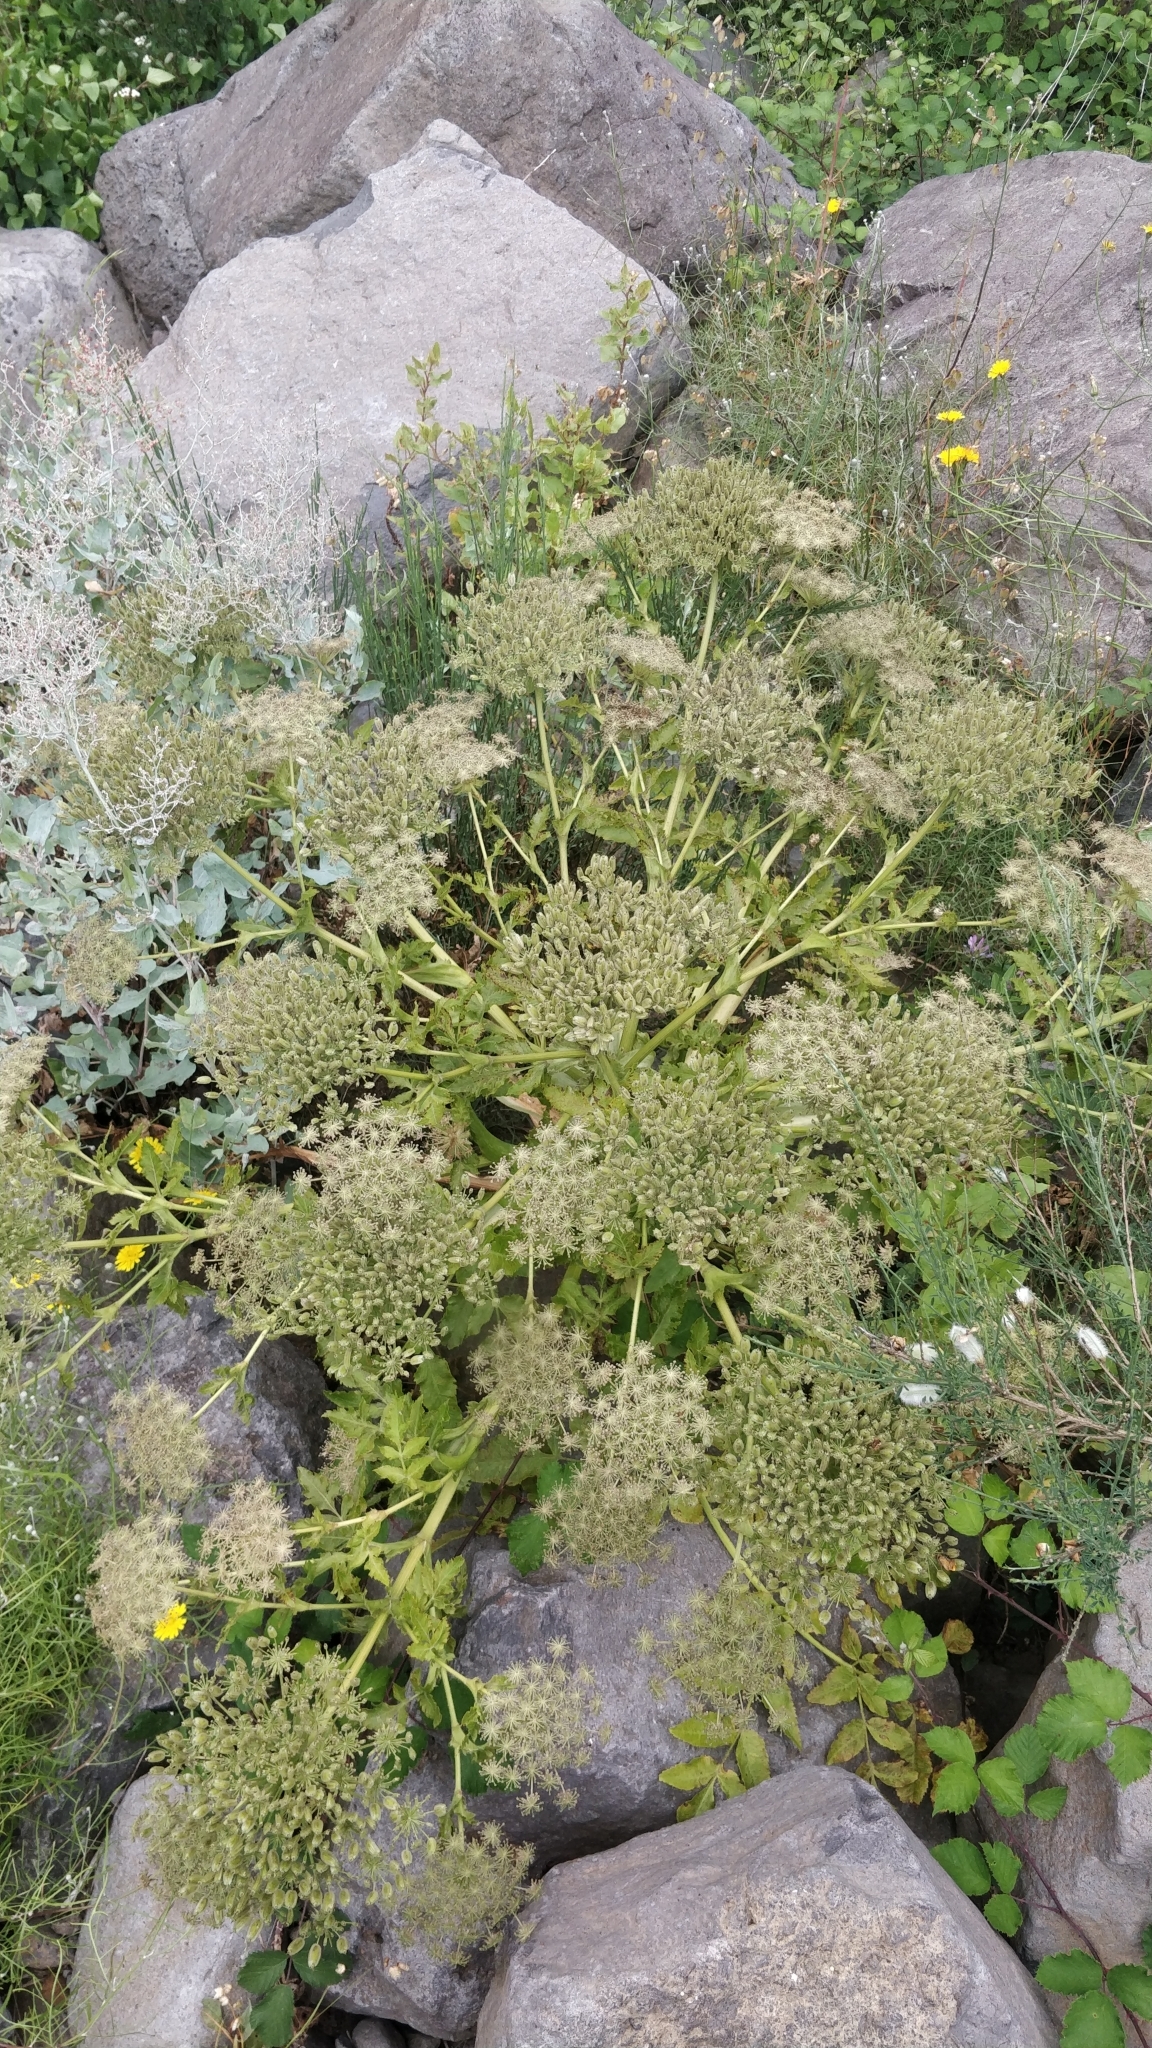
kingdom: Plantae
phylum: Tracheophyta
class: Magnoliopsida
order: Apiales
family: Apiaceae
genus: Daucus
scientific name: Daucus decipiens
